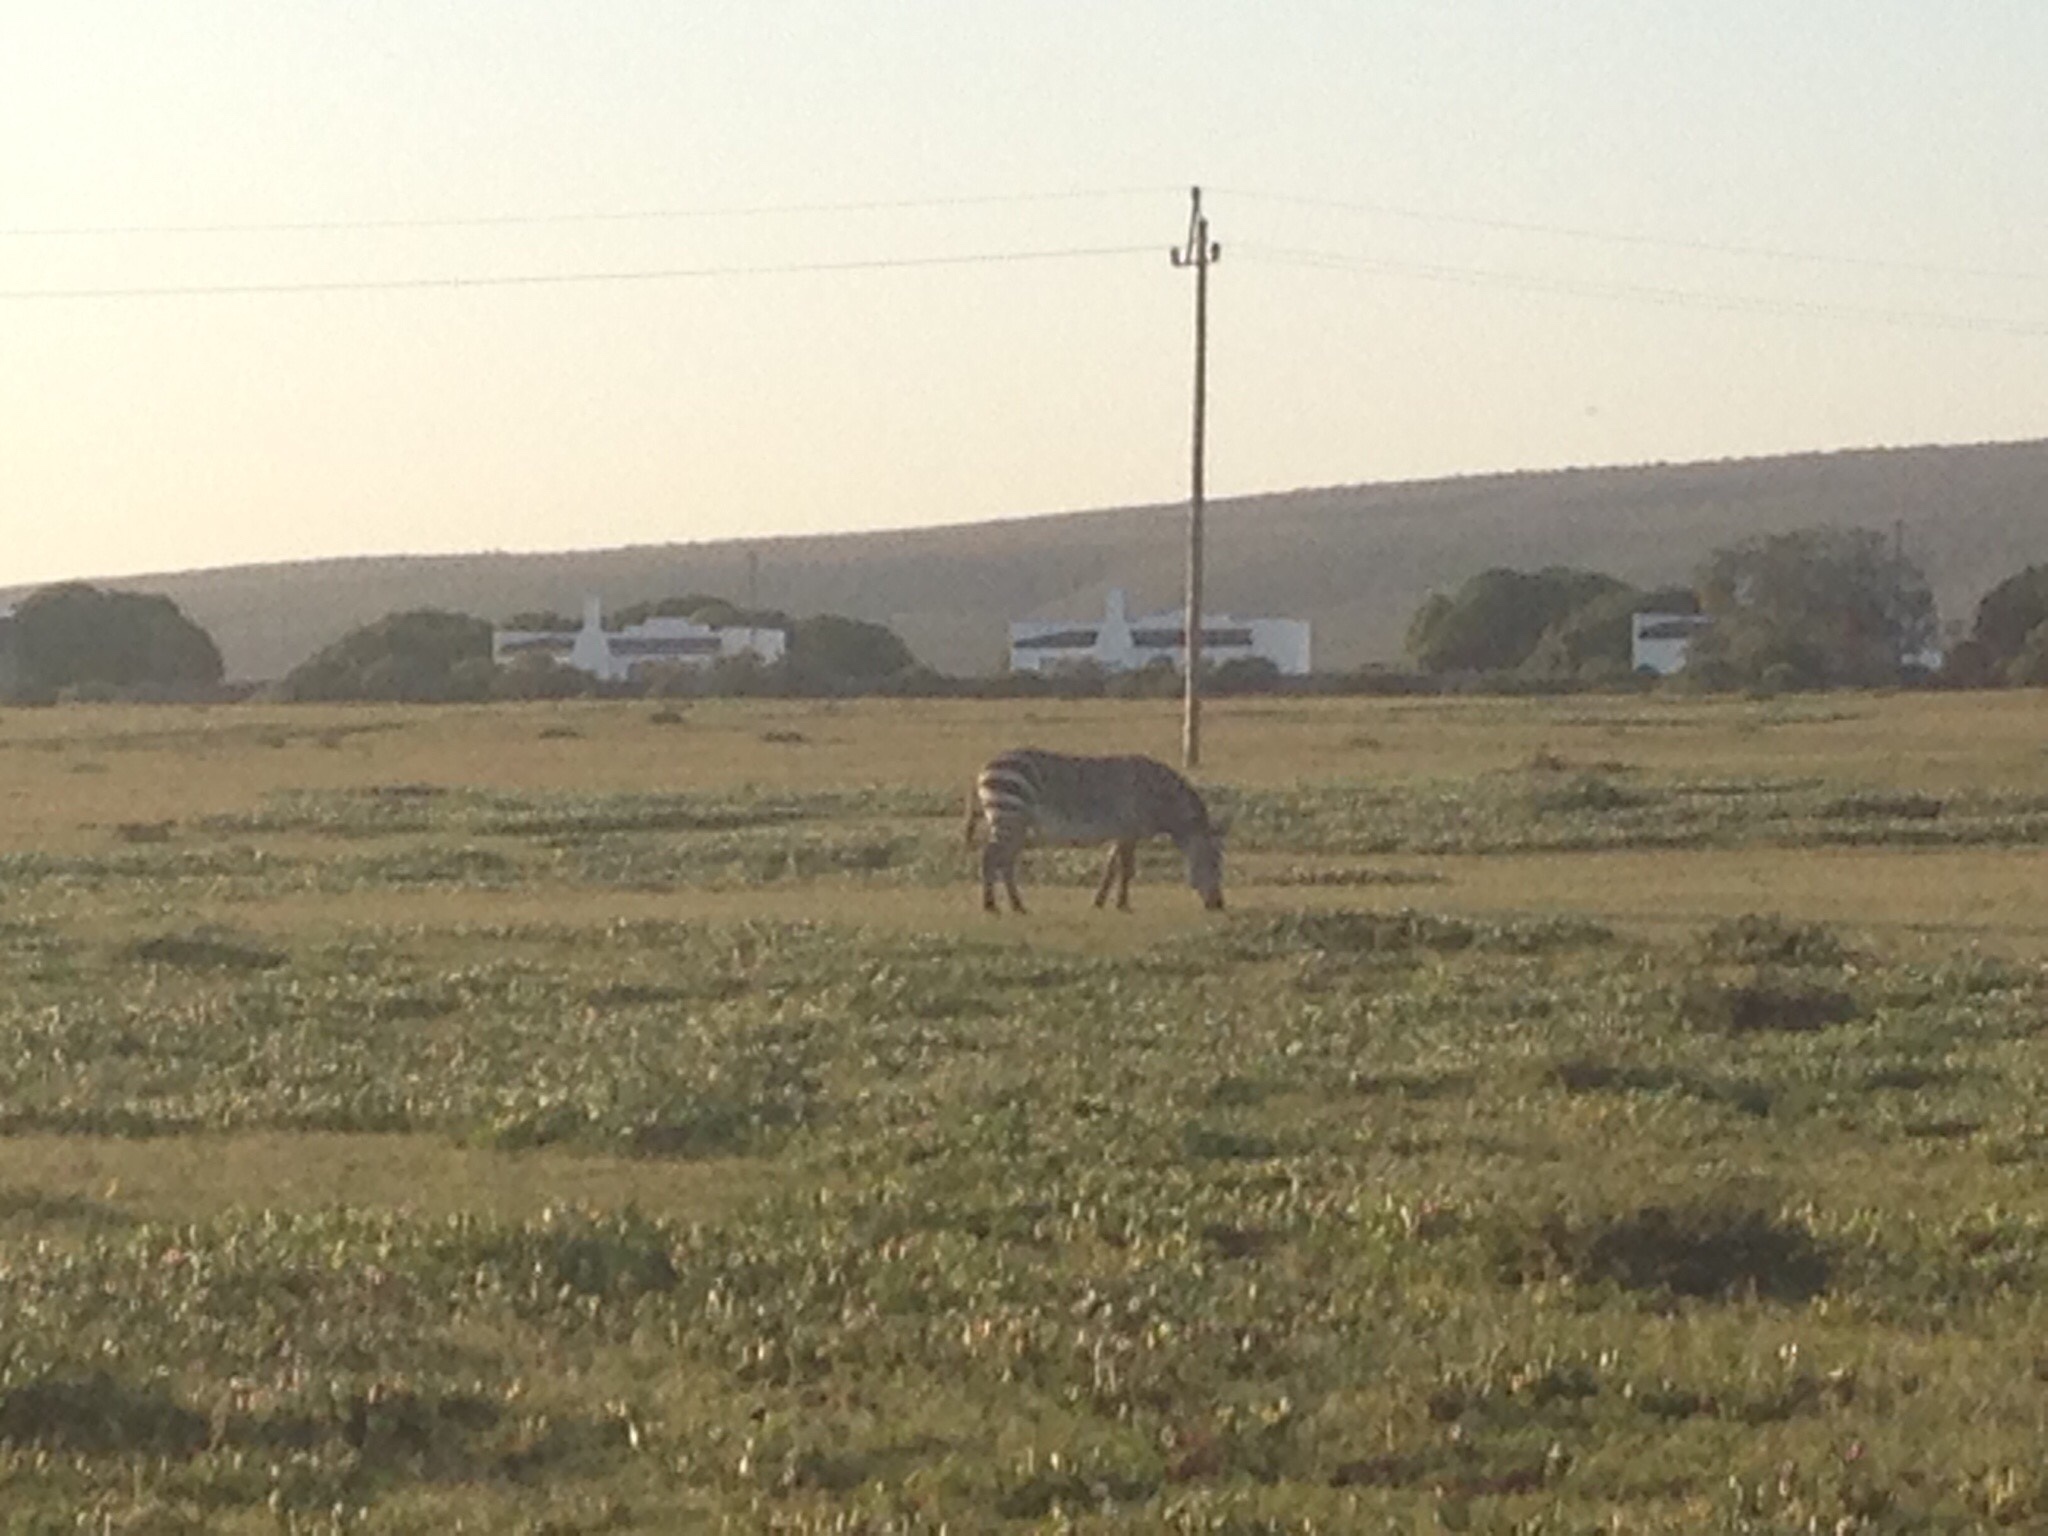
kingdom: Animalia
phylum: Chordata
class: Mammalia
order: Perissodactyla
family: Equidae
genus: Equus
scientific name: Equus zebra
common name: Mountain zebra
